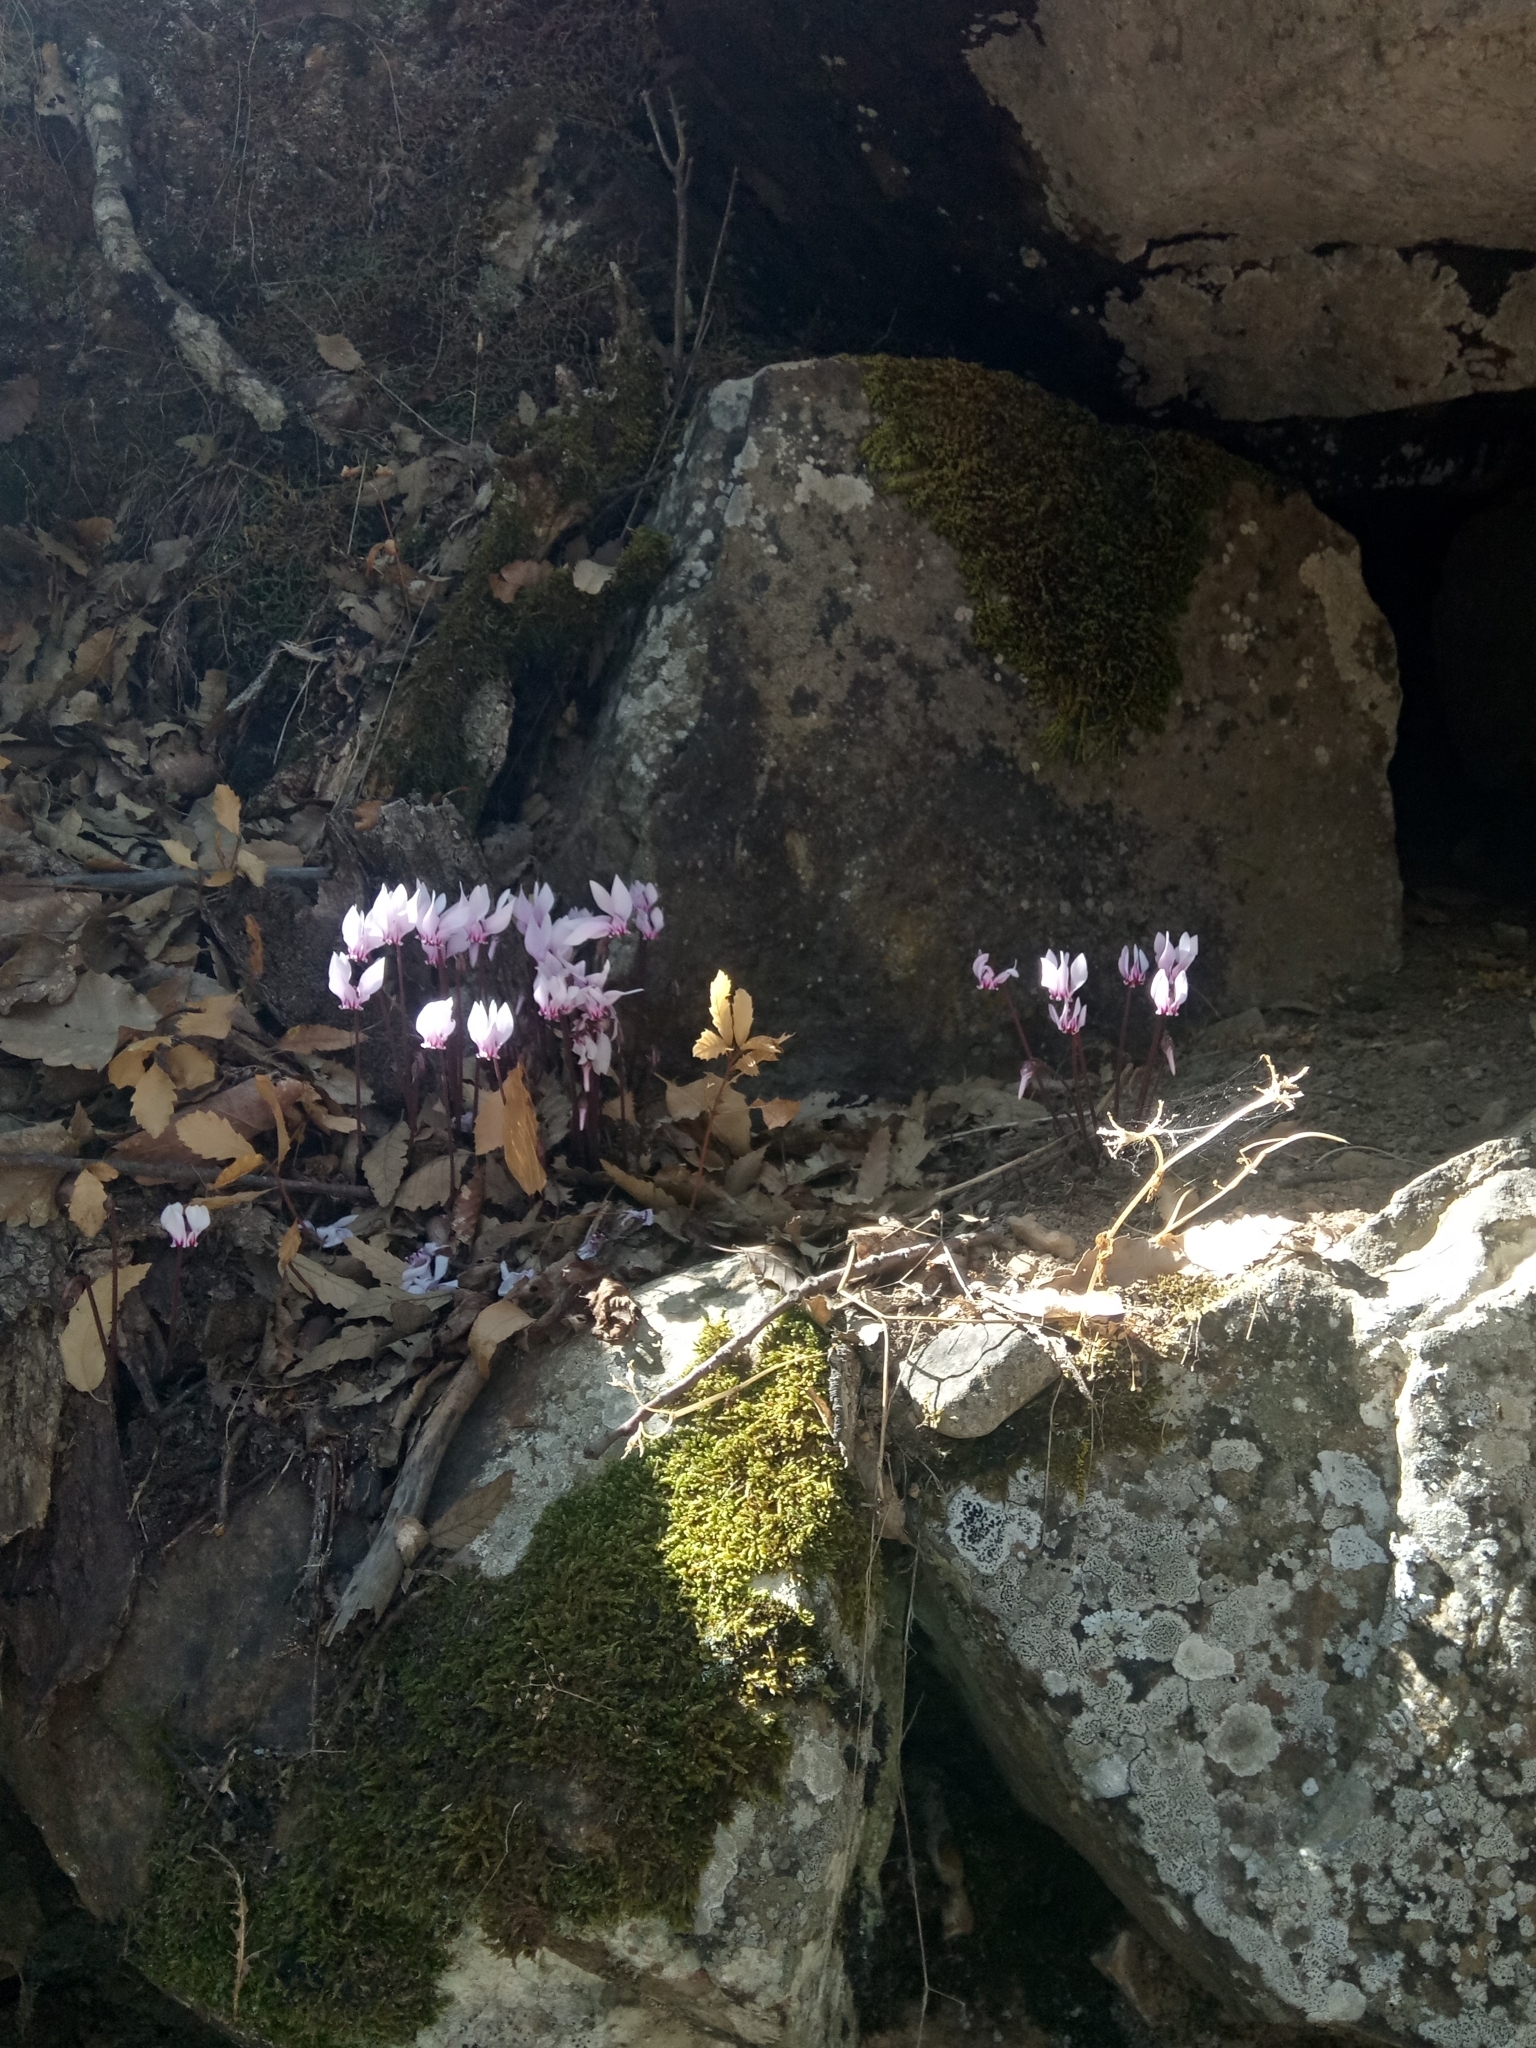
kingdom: Plantae
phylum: Tracheophyta
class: Magnoliopsida
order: Ericales
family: Primulaceae
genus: Cyclamen
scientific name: Cyclamen africanum
